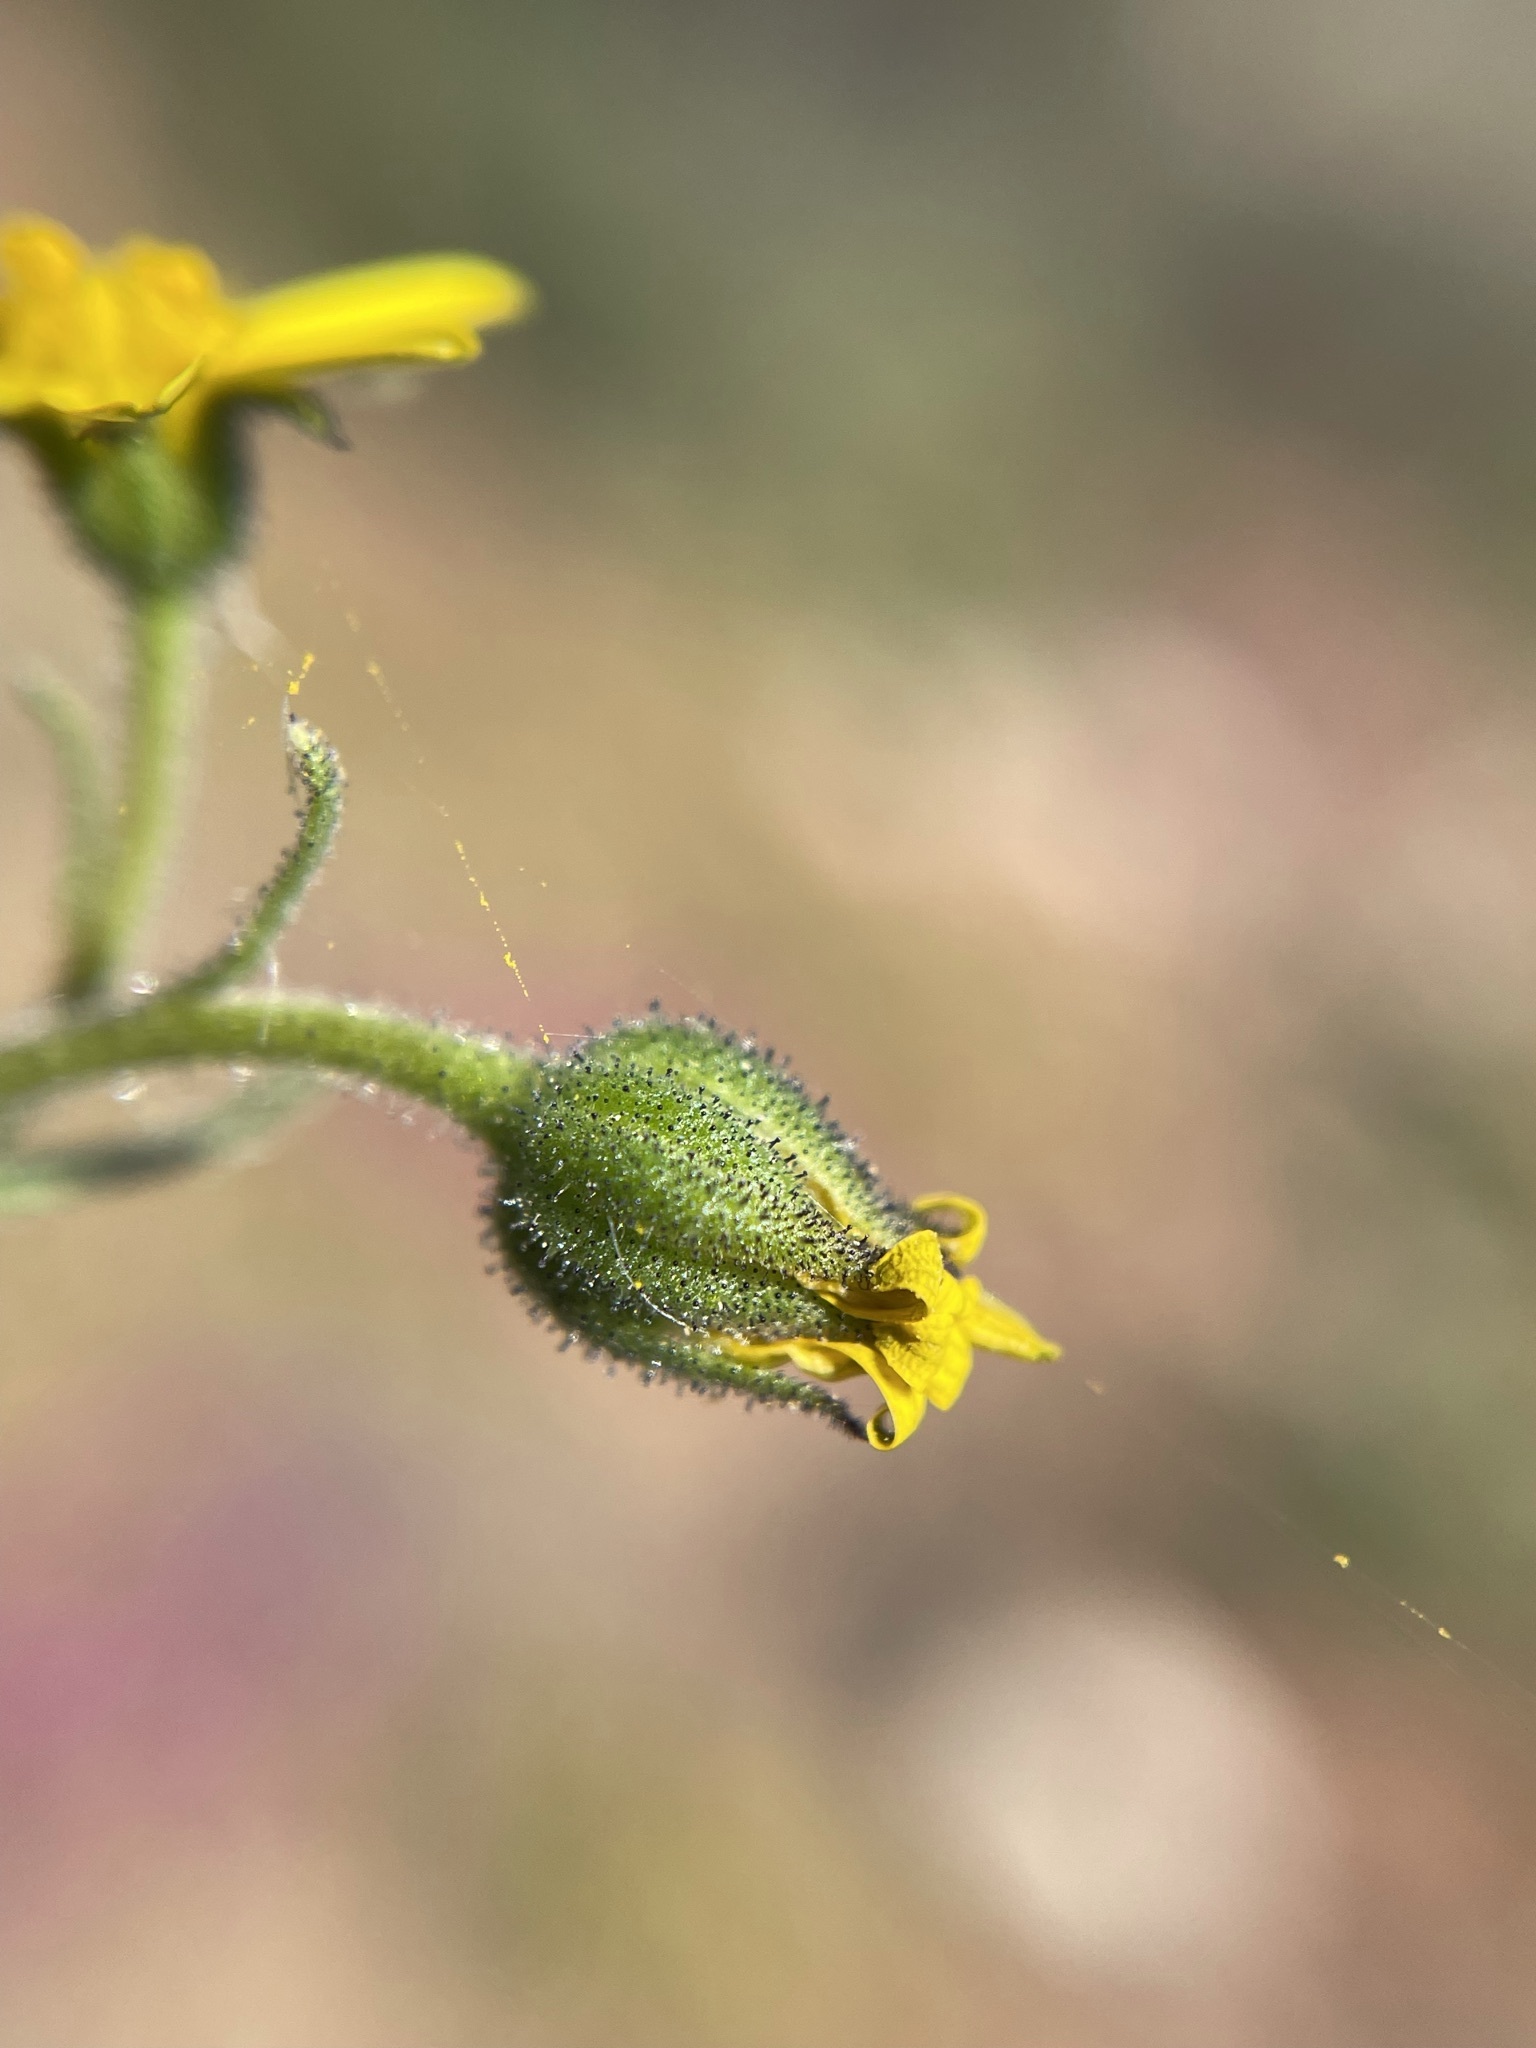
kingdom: Plantae
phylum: Tracheophyta
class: Magnoliopsida
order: Asterales
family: Asteraceae
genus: Osteospermum
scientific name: Osteospermum calendulaceum
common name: Stinking roger
